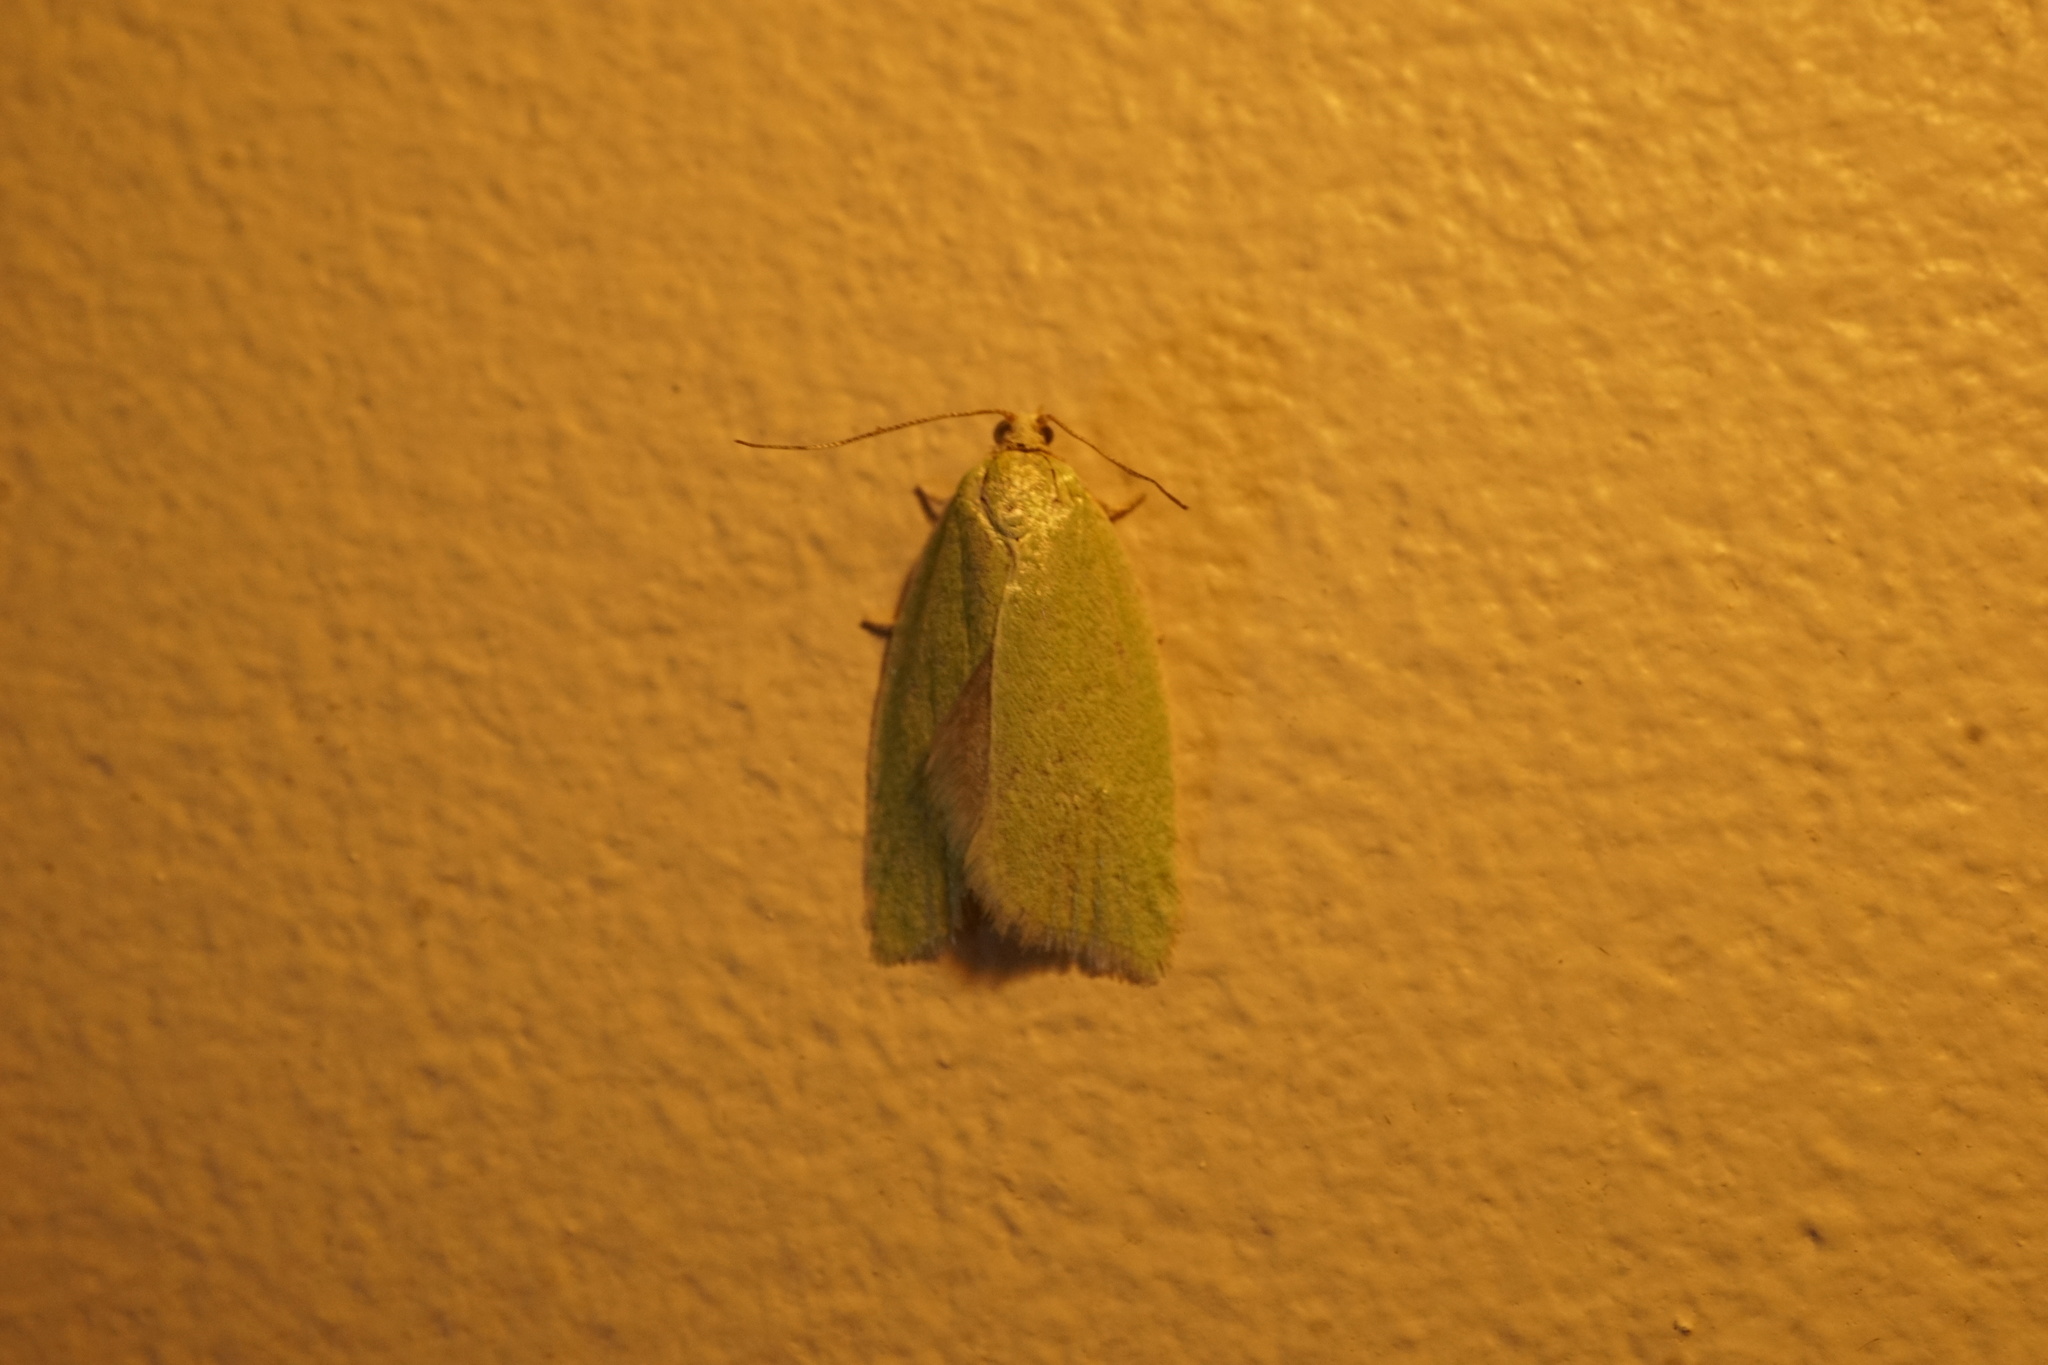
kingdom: Animalia
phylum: Arthropoda
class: Insecta
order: Lepidoptera
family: Tortricidae
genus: Tortrix
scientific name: Tortrix viridana
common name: Green oak tortrix
